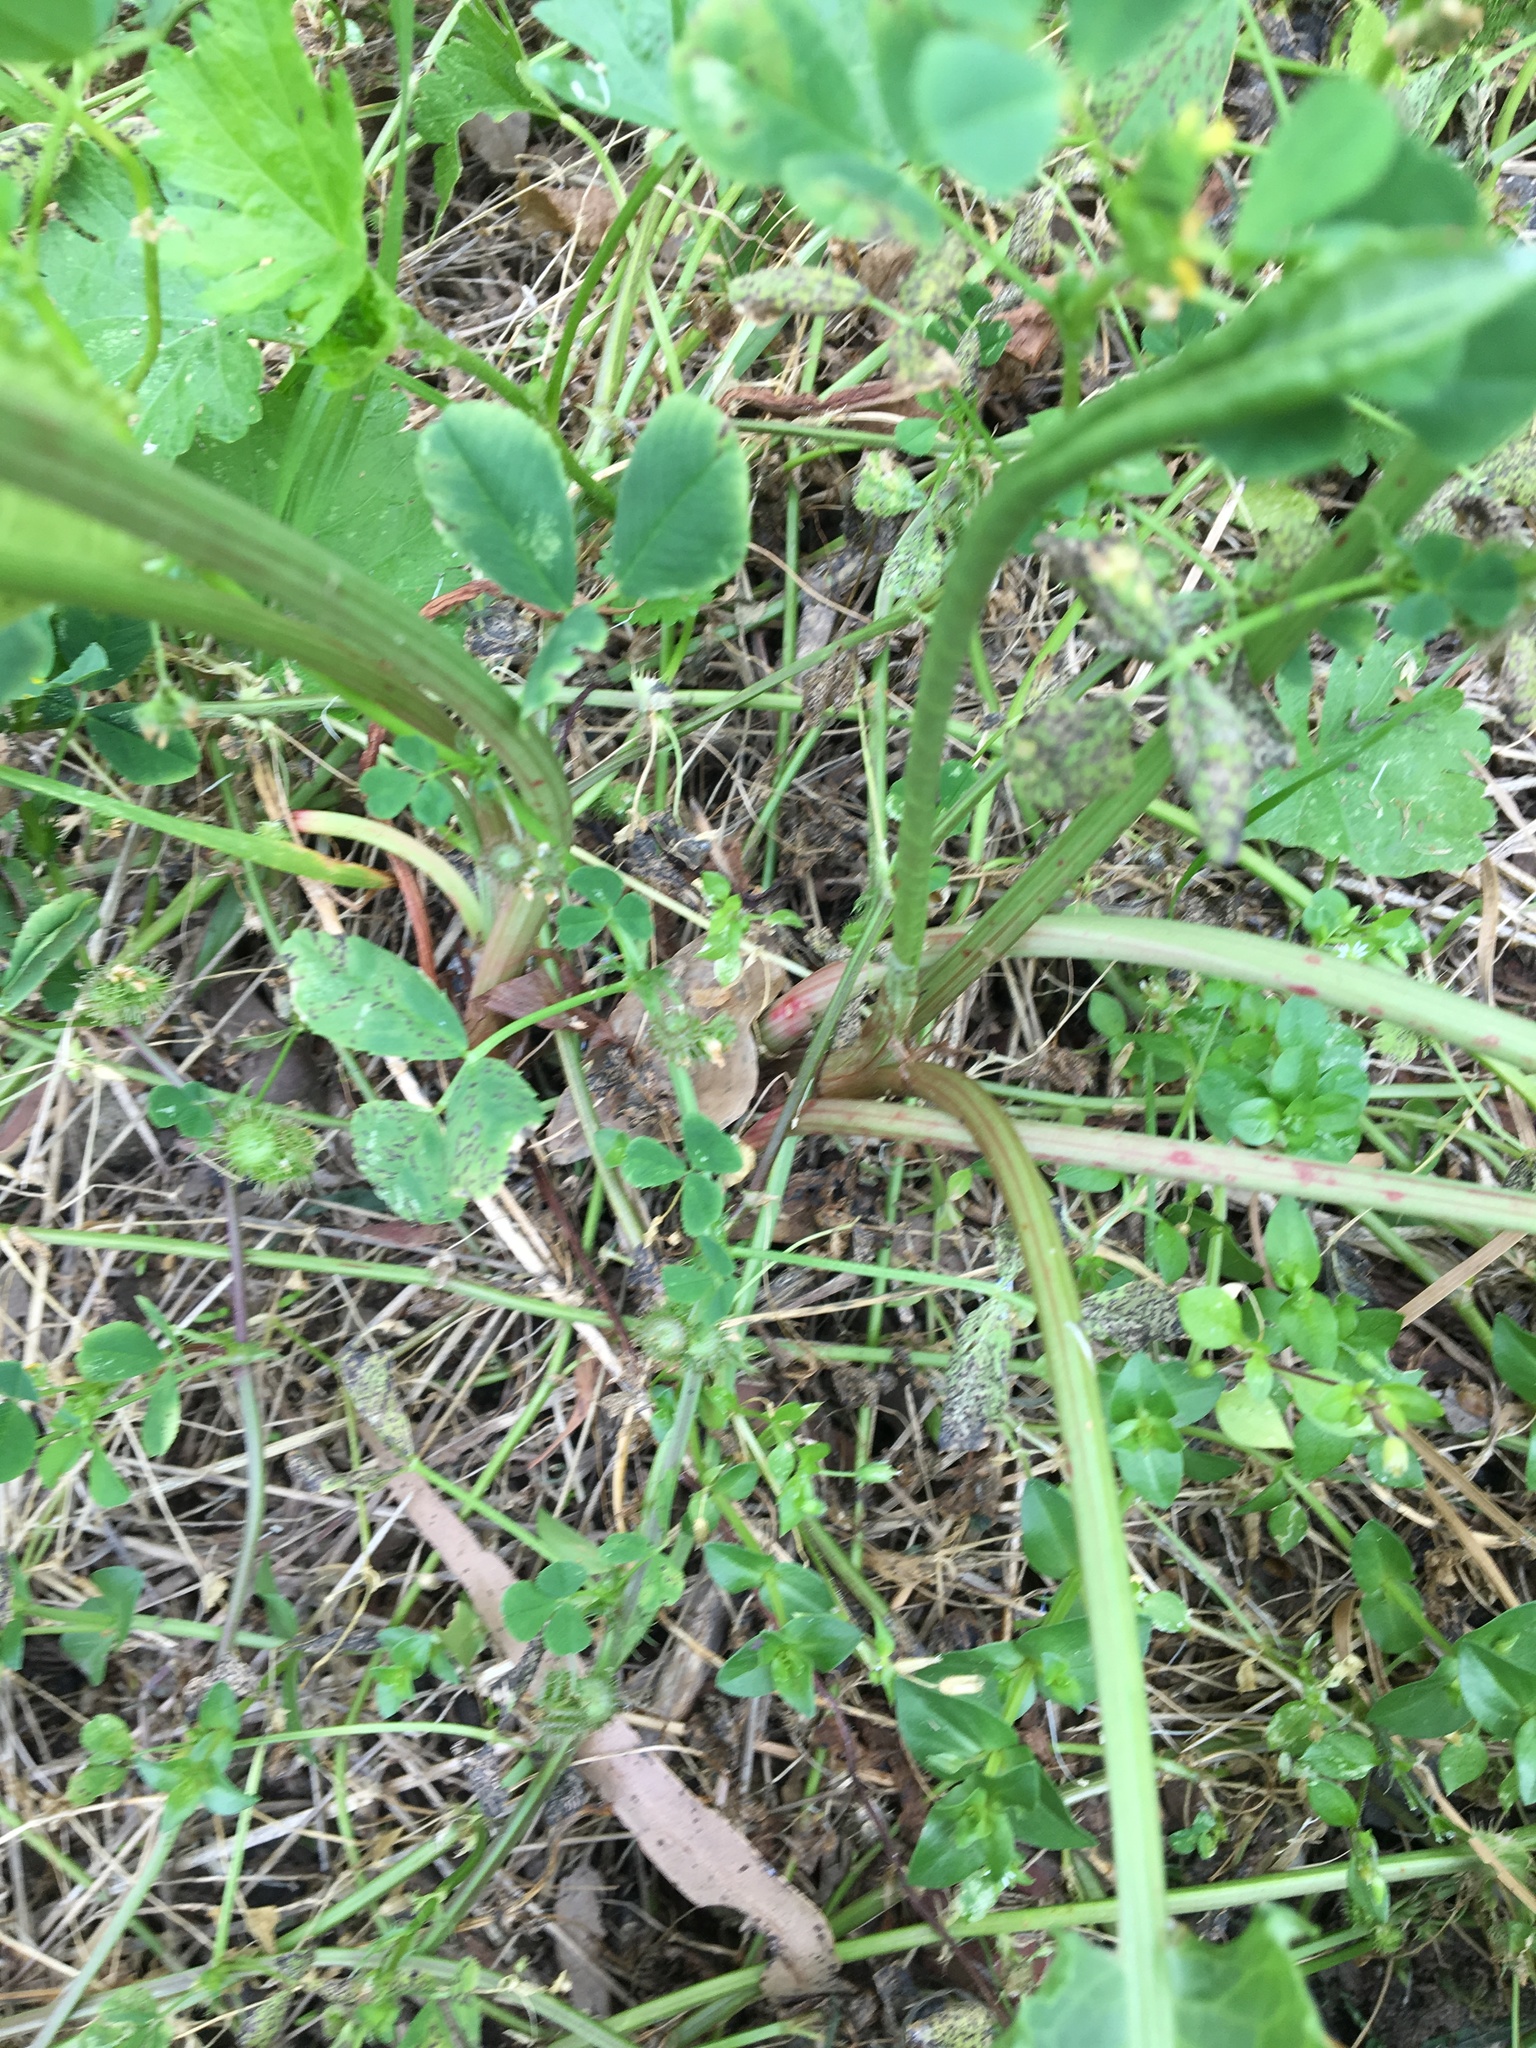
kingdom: Plantae
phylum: Tracheophyta
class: Magnoliopsida
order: Caryophyllales
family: Polygonaceae
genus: Rumex
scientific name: Rumex crispus
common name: Curled dock
